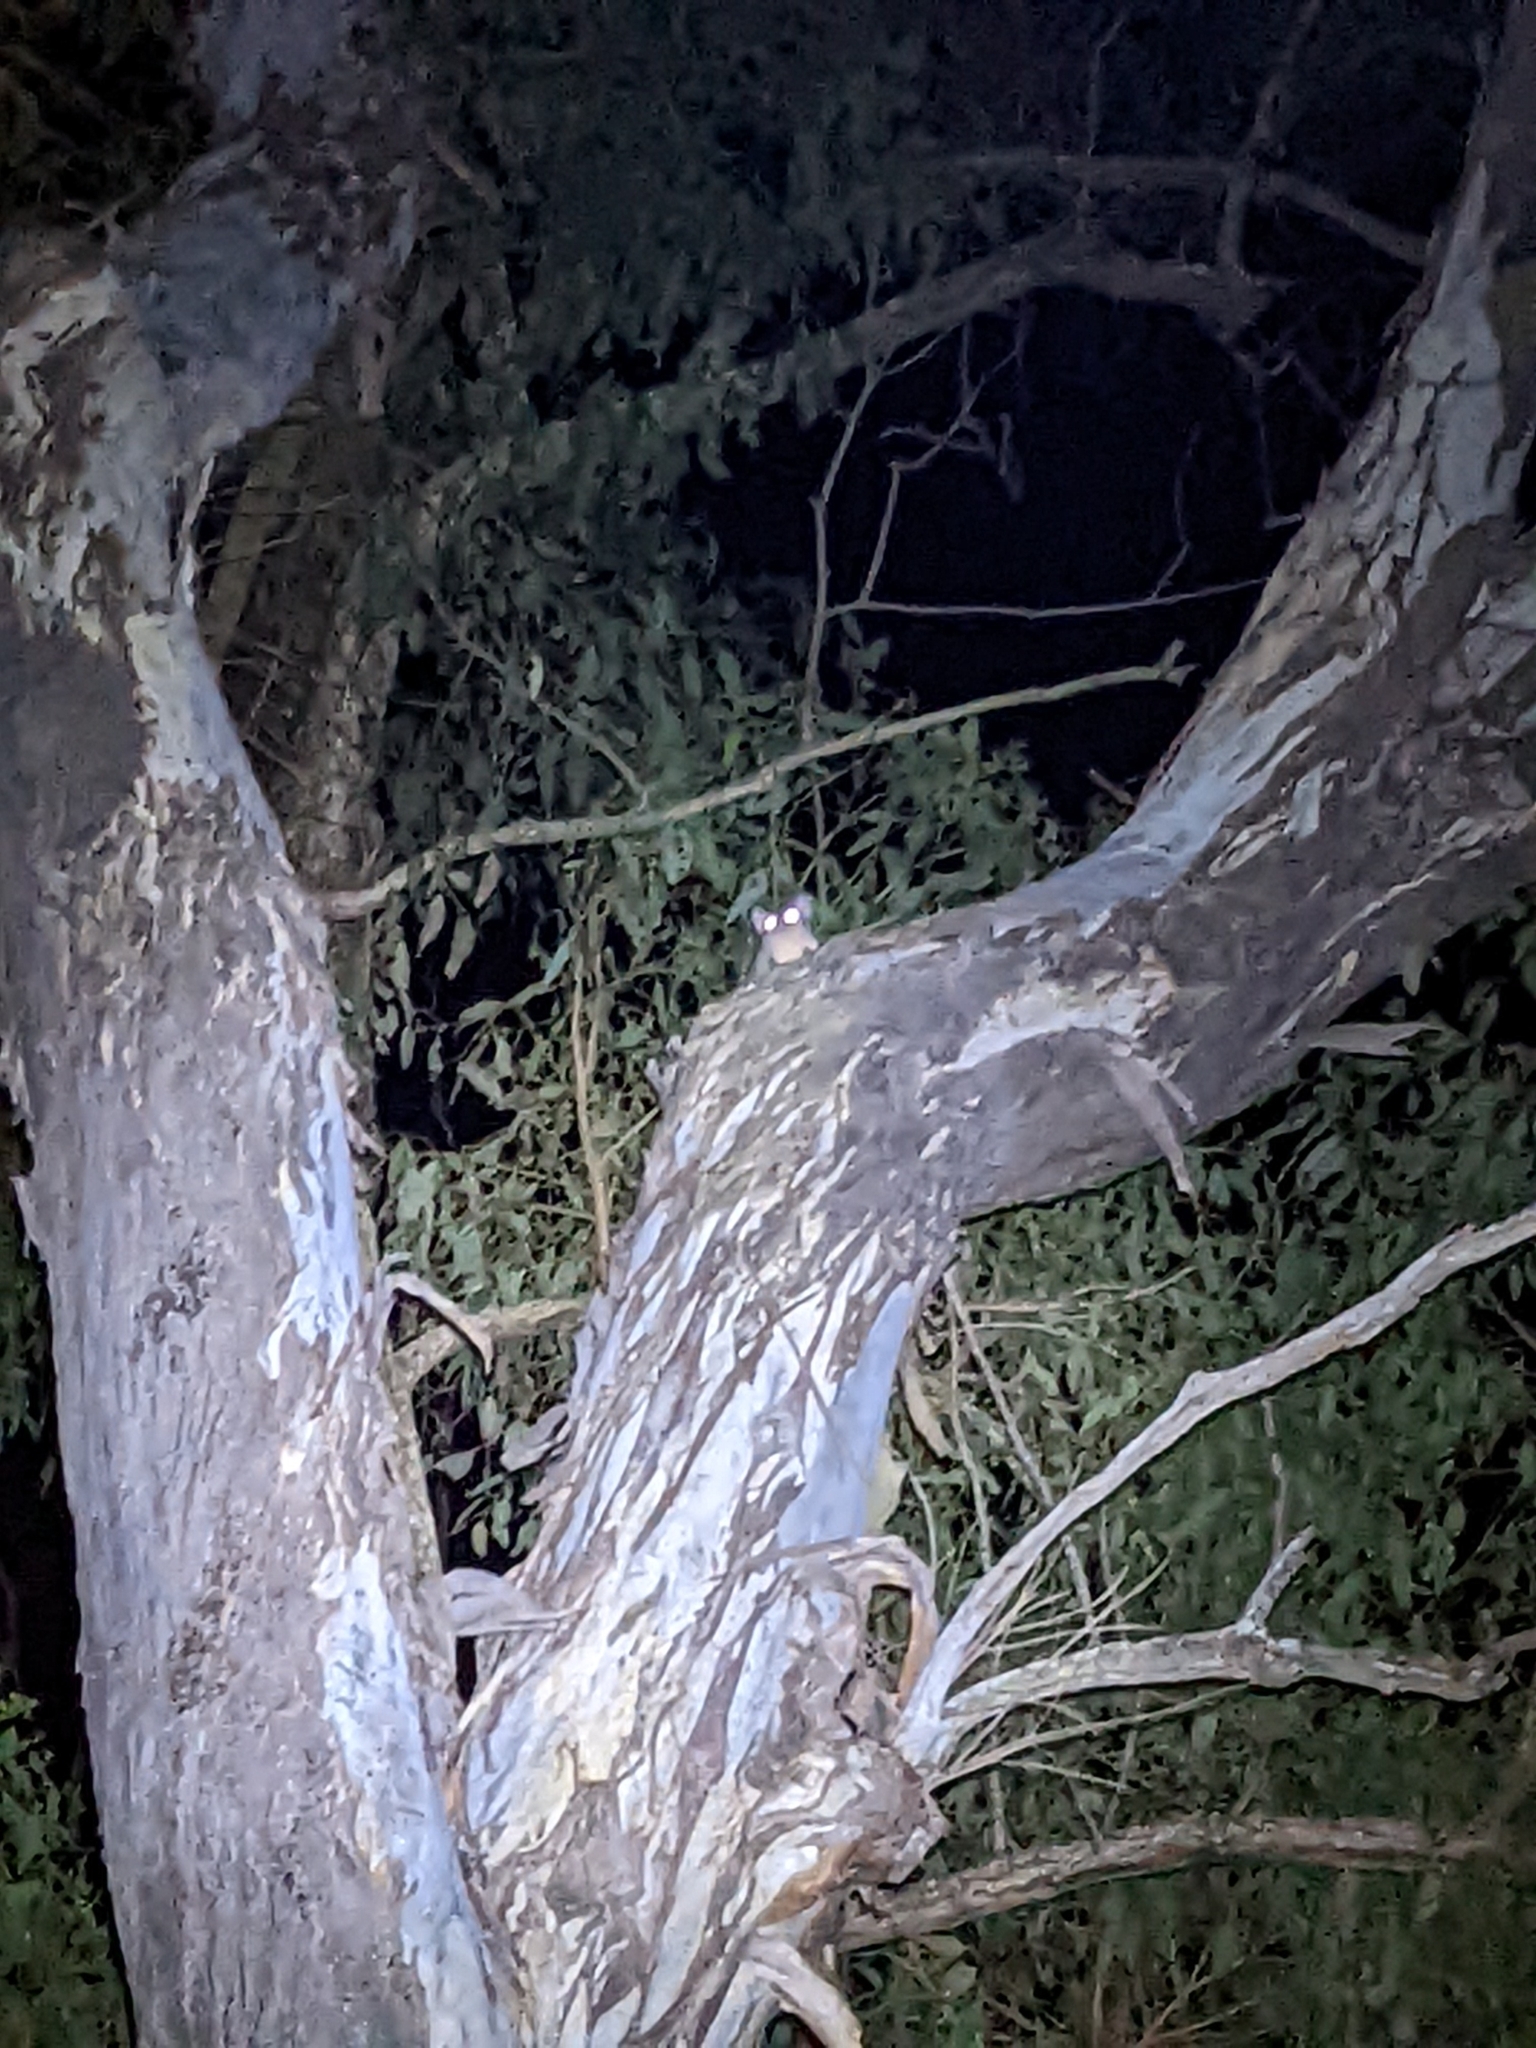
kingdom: Animalia
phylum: Chordata
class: Mammalia
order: Diprotodontia
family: Petauridae
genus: Petaurus
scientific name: Petaurus norfolcensis
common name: Squirrel glider
